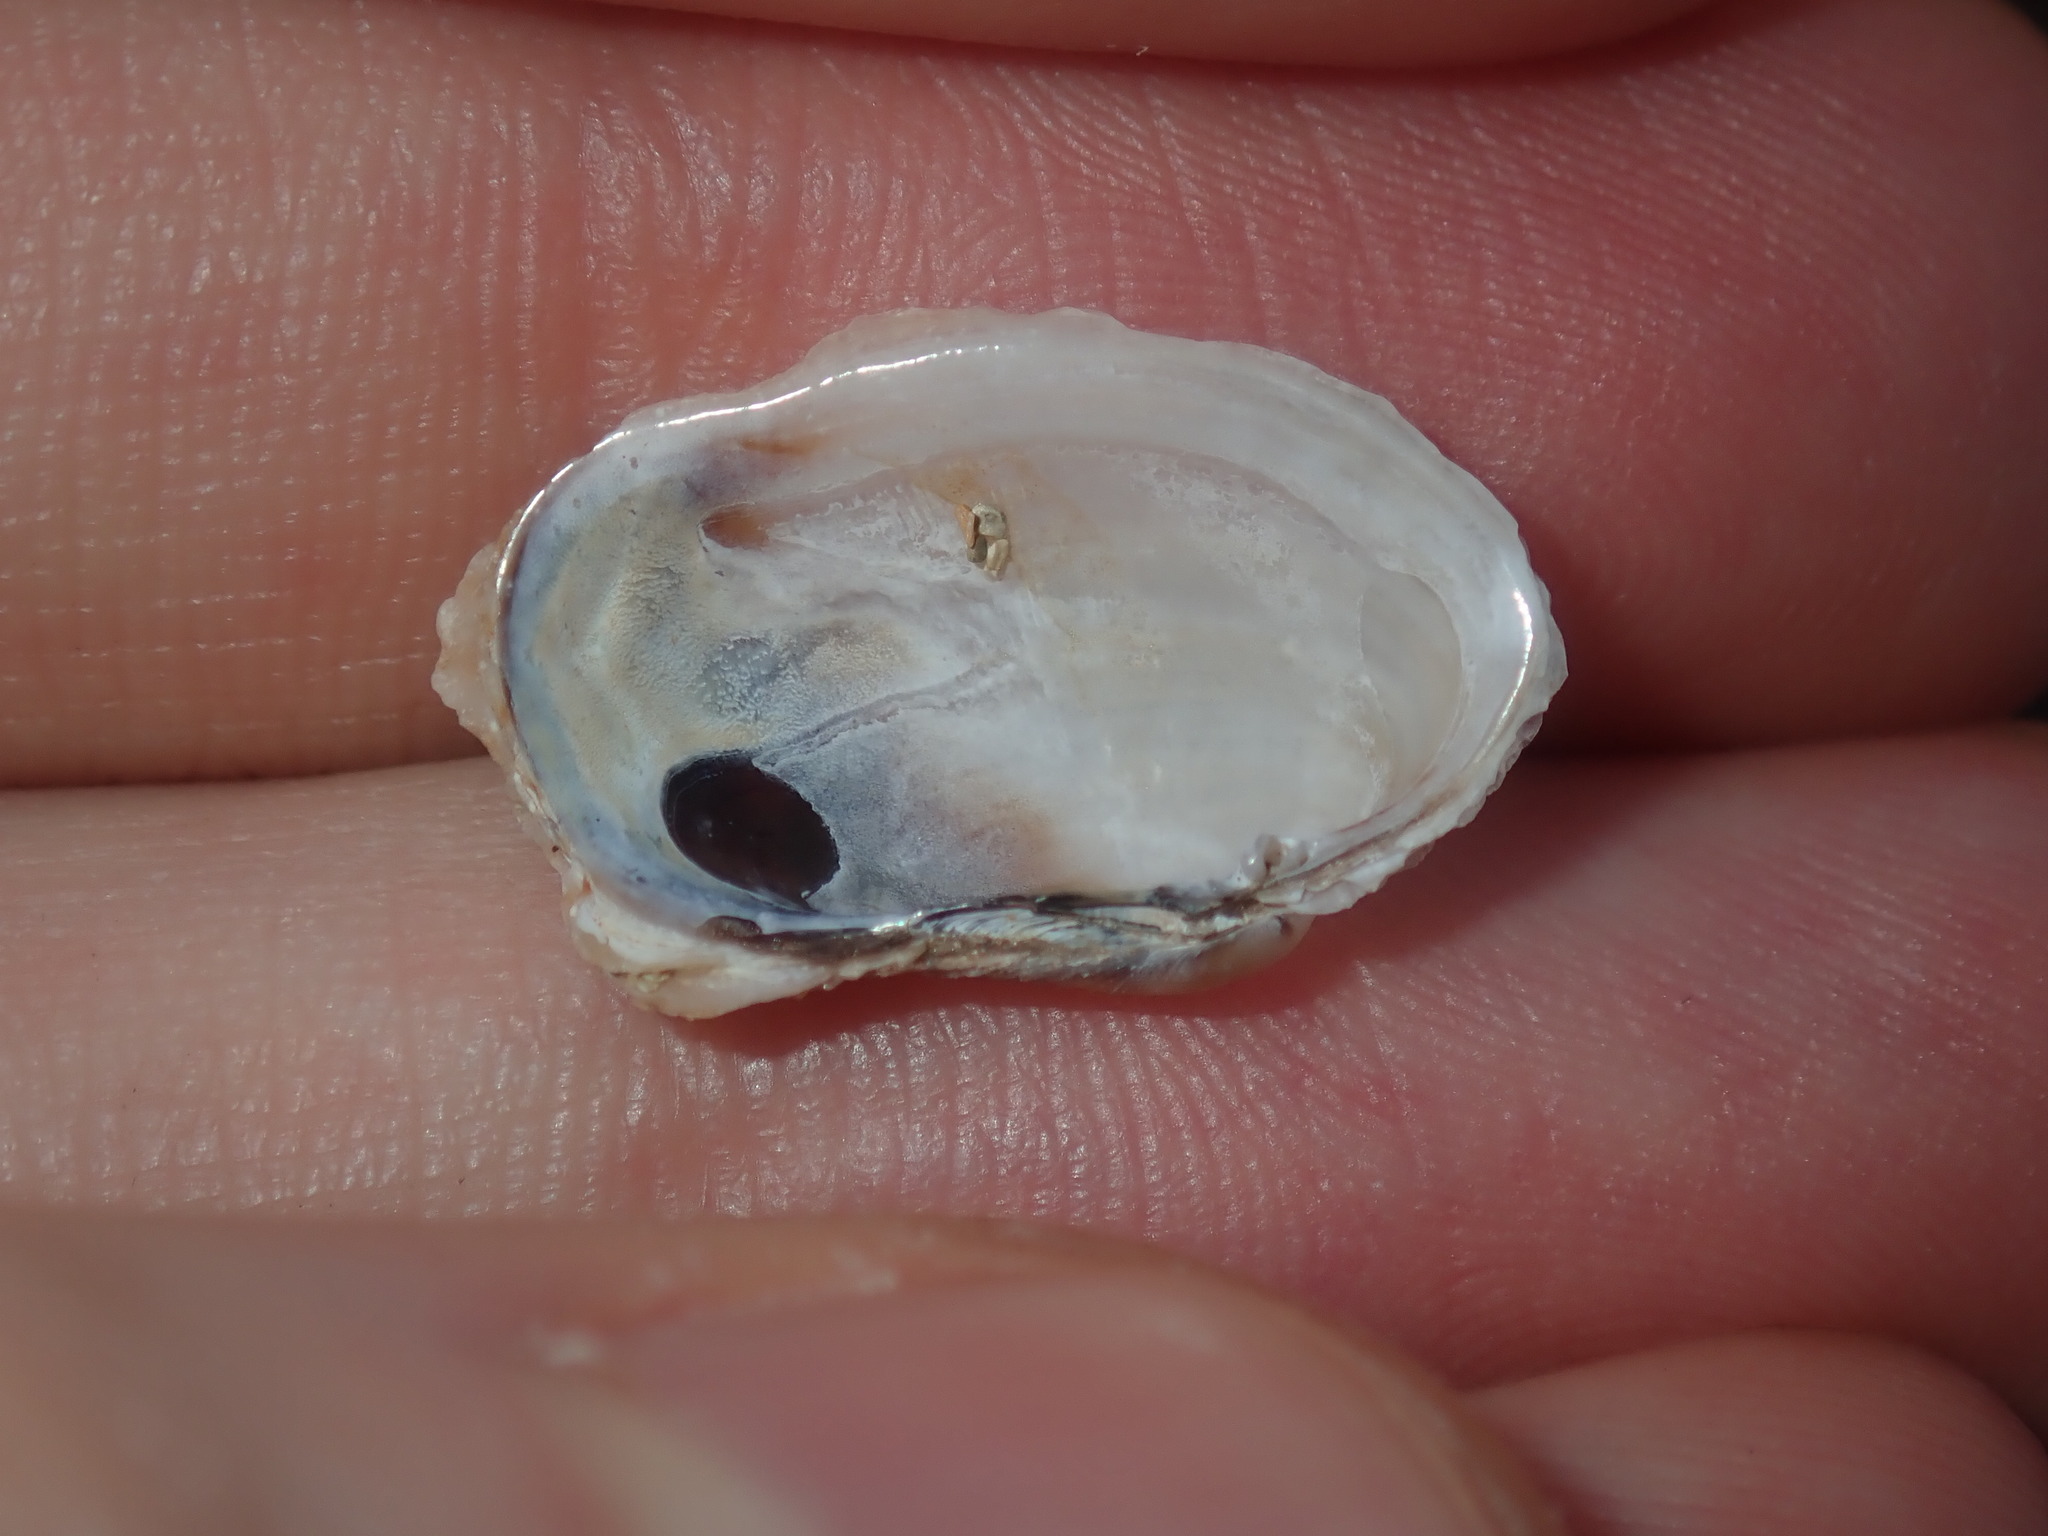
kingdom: Animalia
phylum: Mollusca
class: Bivalvia
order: Venerida
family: Veneridae
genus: Irus
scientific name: Irus crenatus
